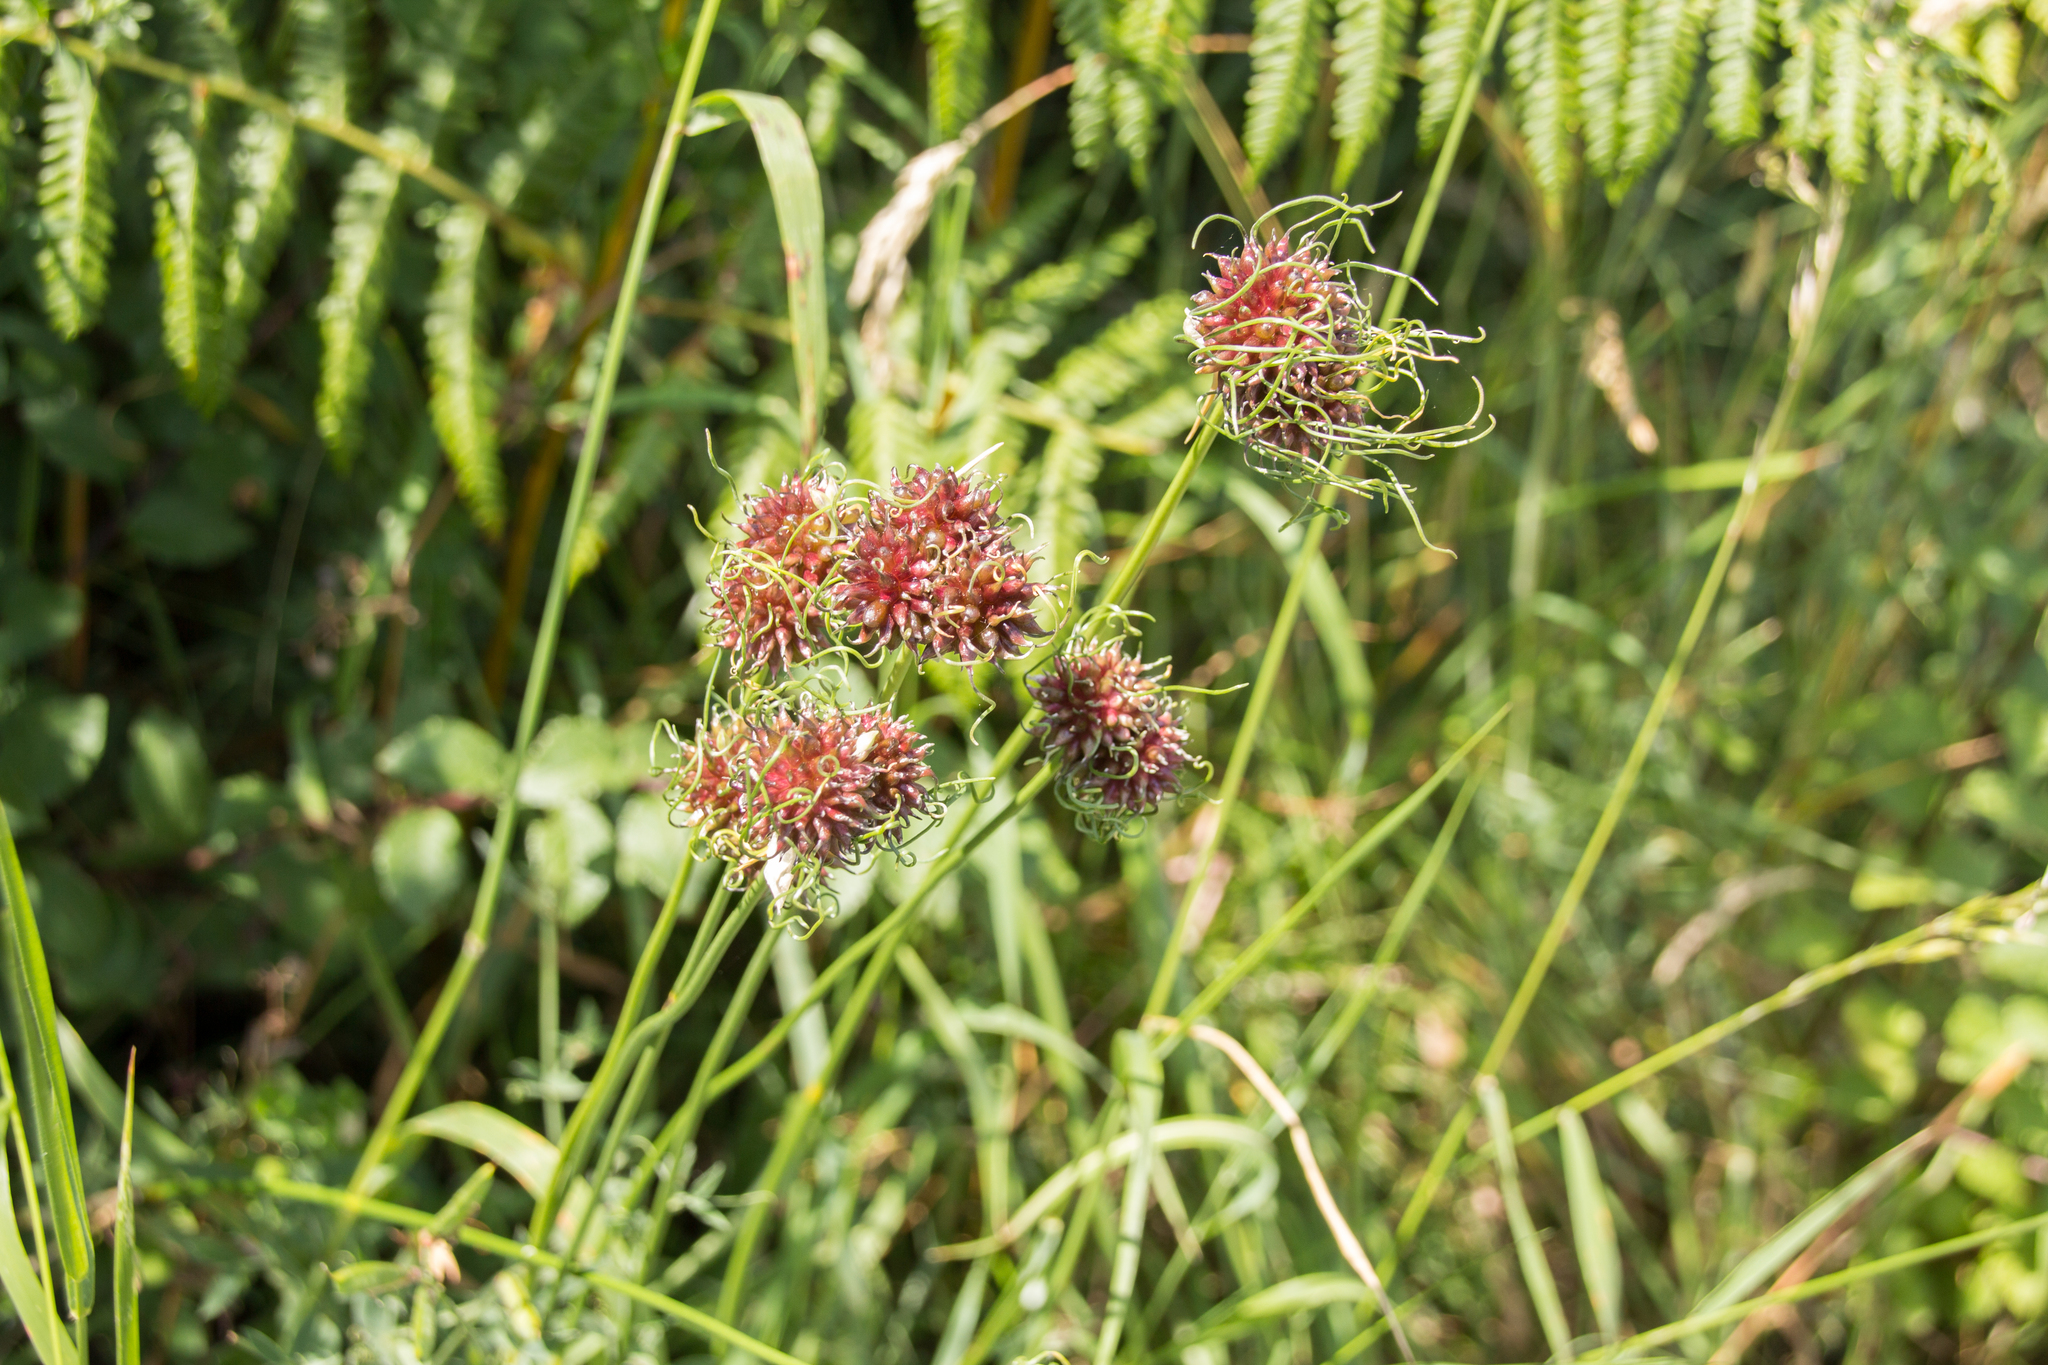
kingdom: Plantae
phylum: Tracheophyta
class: Liliopsida
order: Asparagales
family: Amaryllidaceae
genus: Allium
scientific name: Allium vineale
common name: Crow garlic
